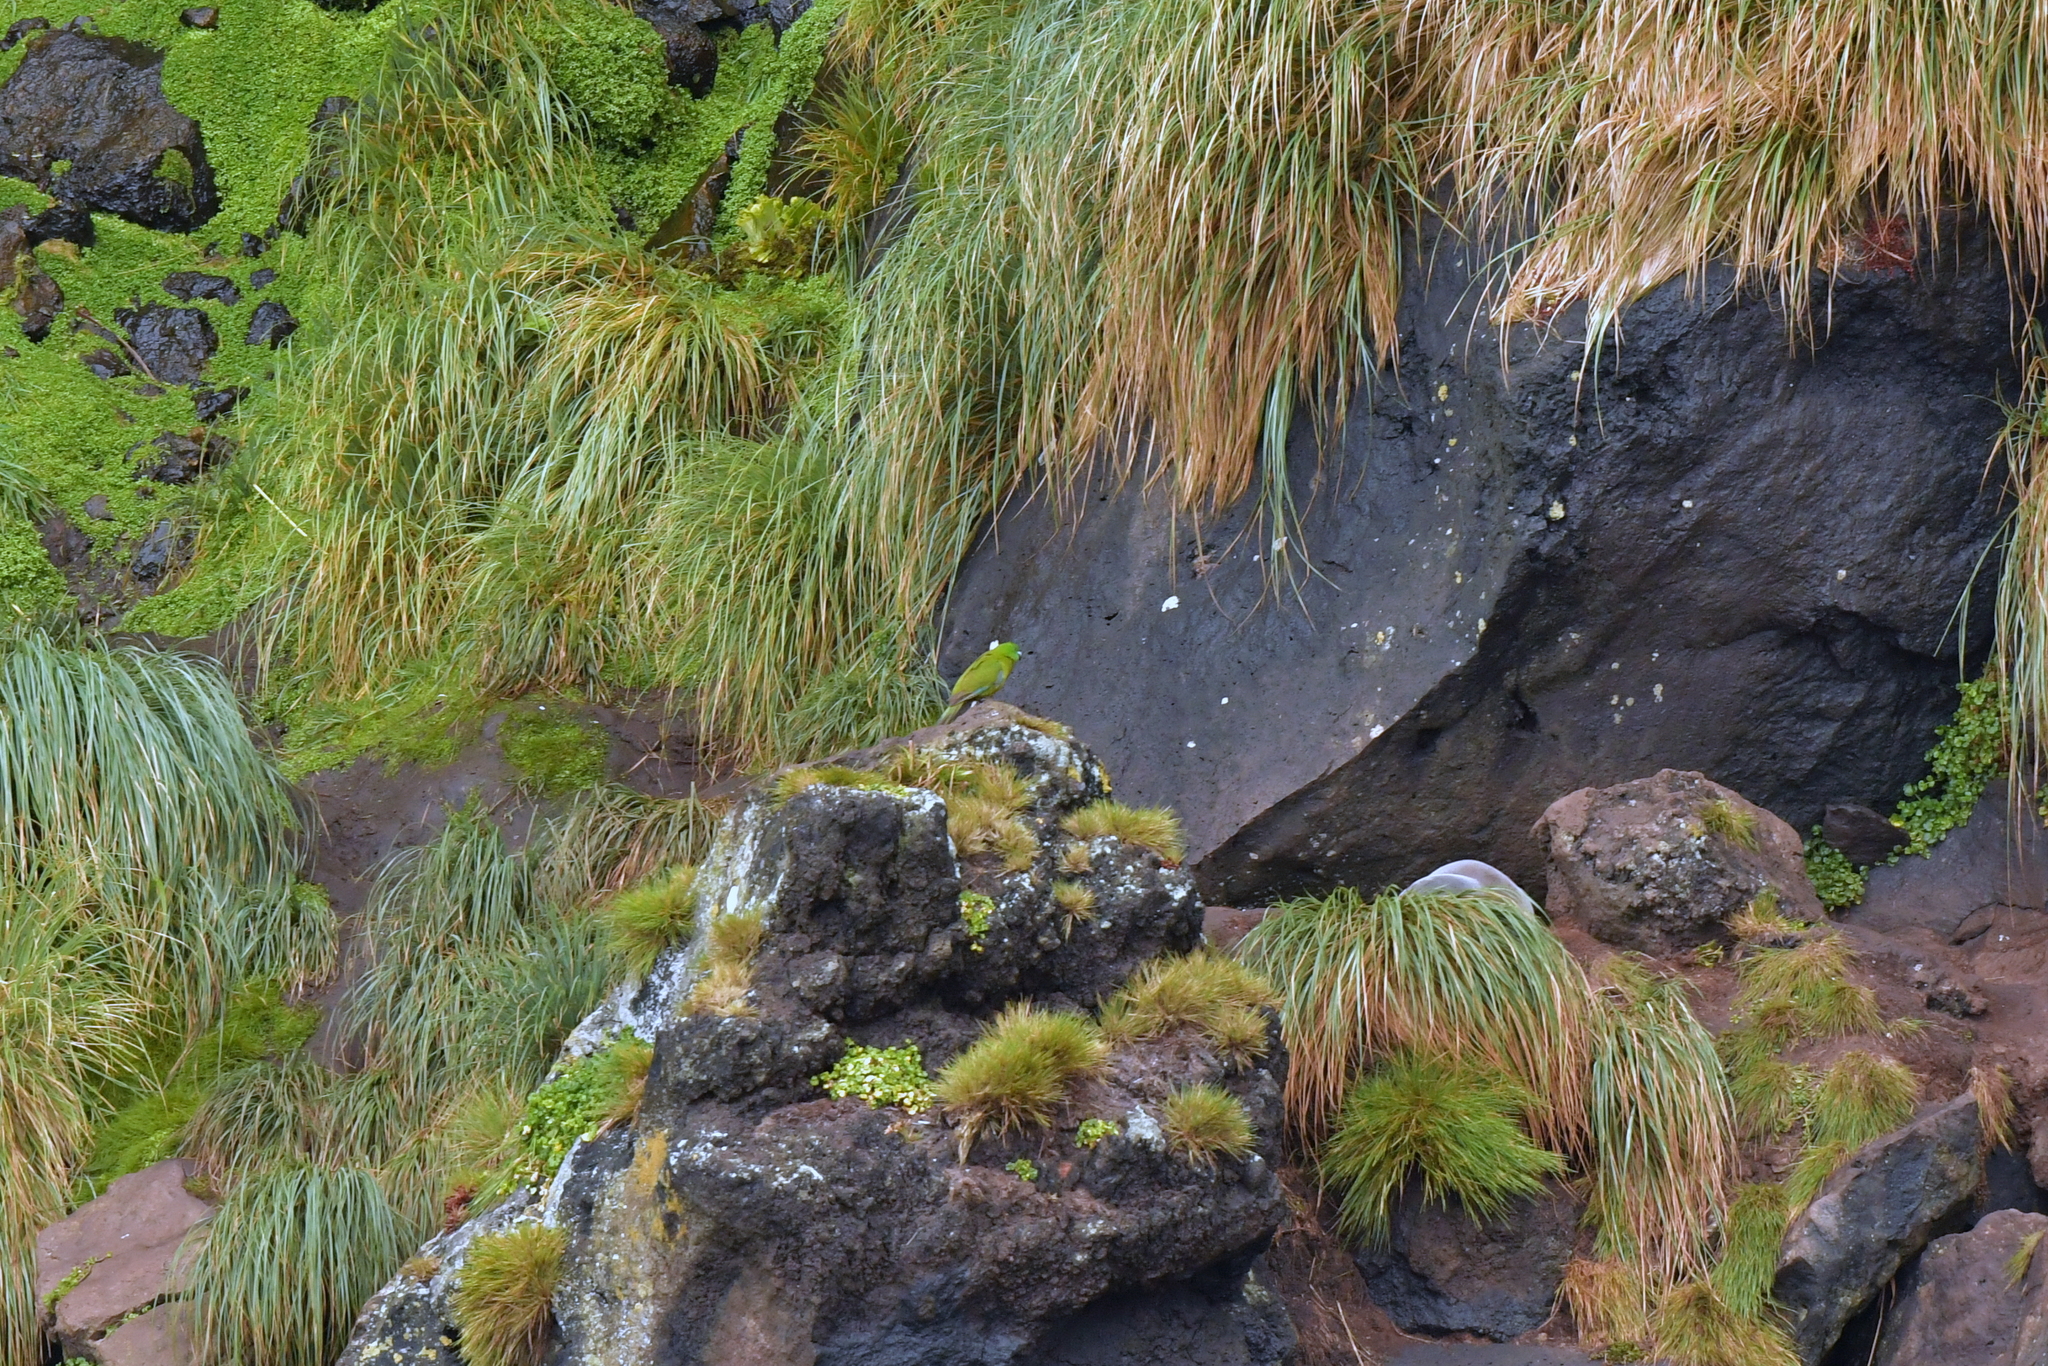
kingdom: Animalia
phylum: Chordata
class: Aves
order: Psittaciformes
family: Psittacidae
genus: Cyanoramphus
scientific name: Cyanoramphus unicolor
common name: Antipodes parakeet
